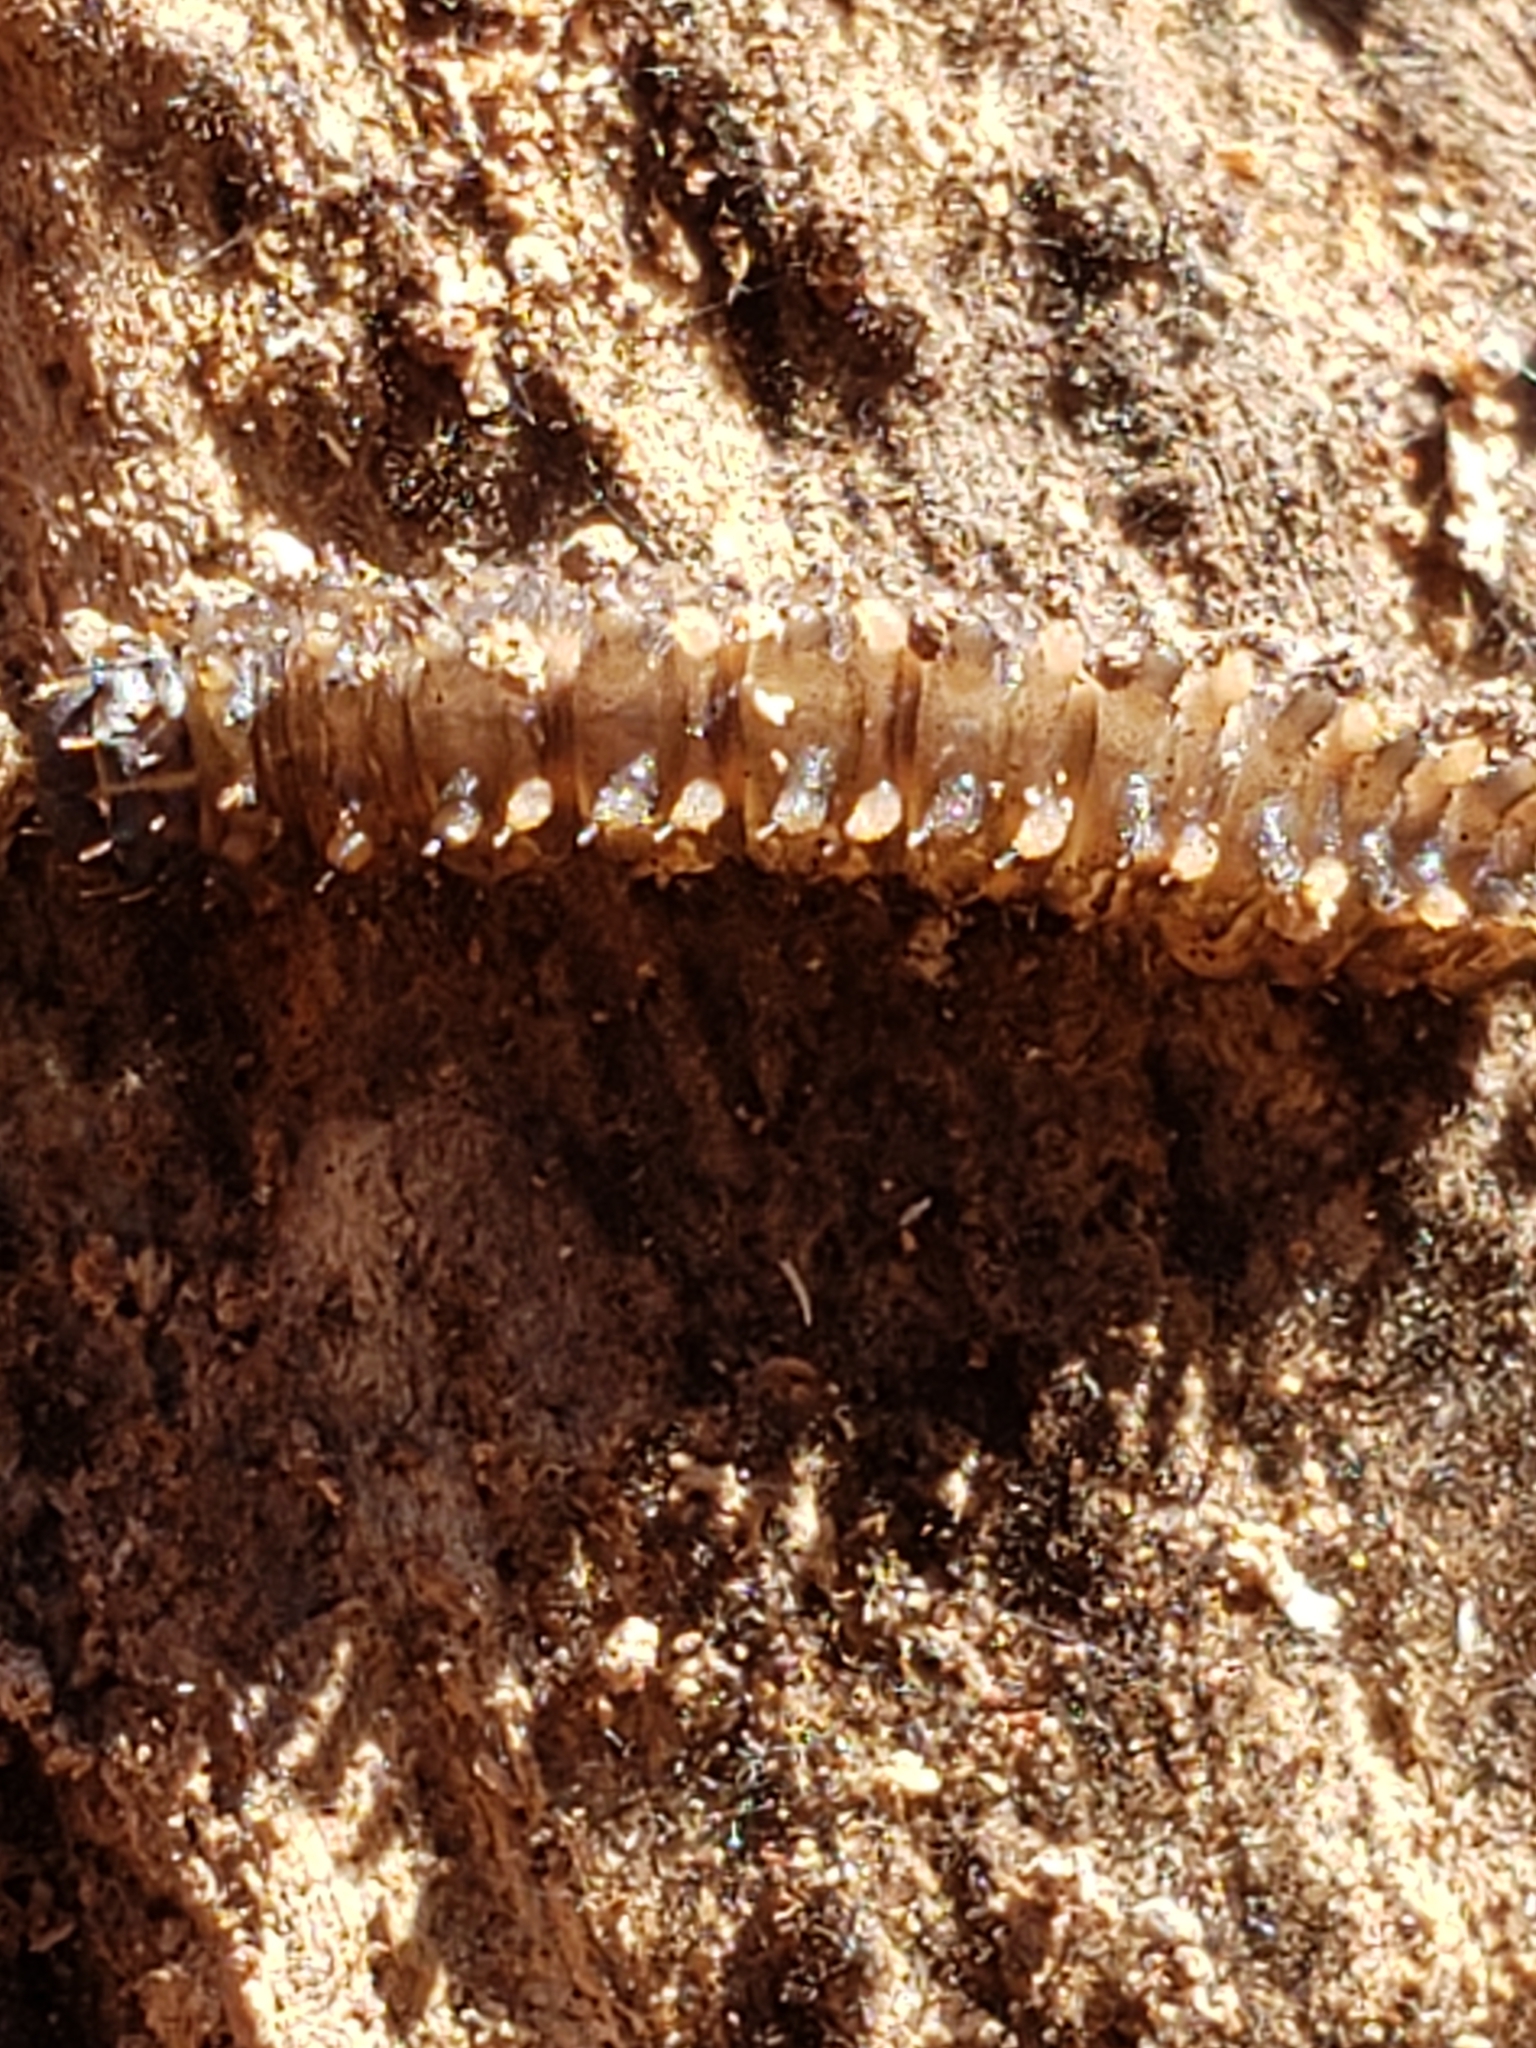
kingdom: Animalia
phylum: Arthropoda
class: Insecta
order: Lepidoptera
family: Erebidae
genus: Idia
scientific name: Idia lubricalis
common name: Twin-striped tabby
